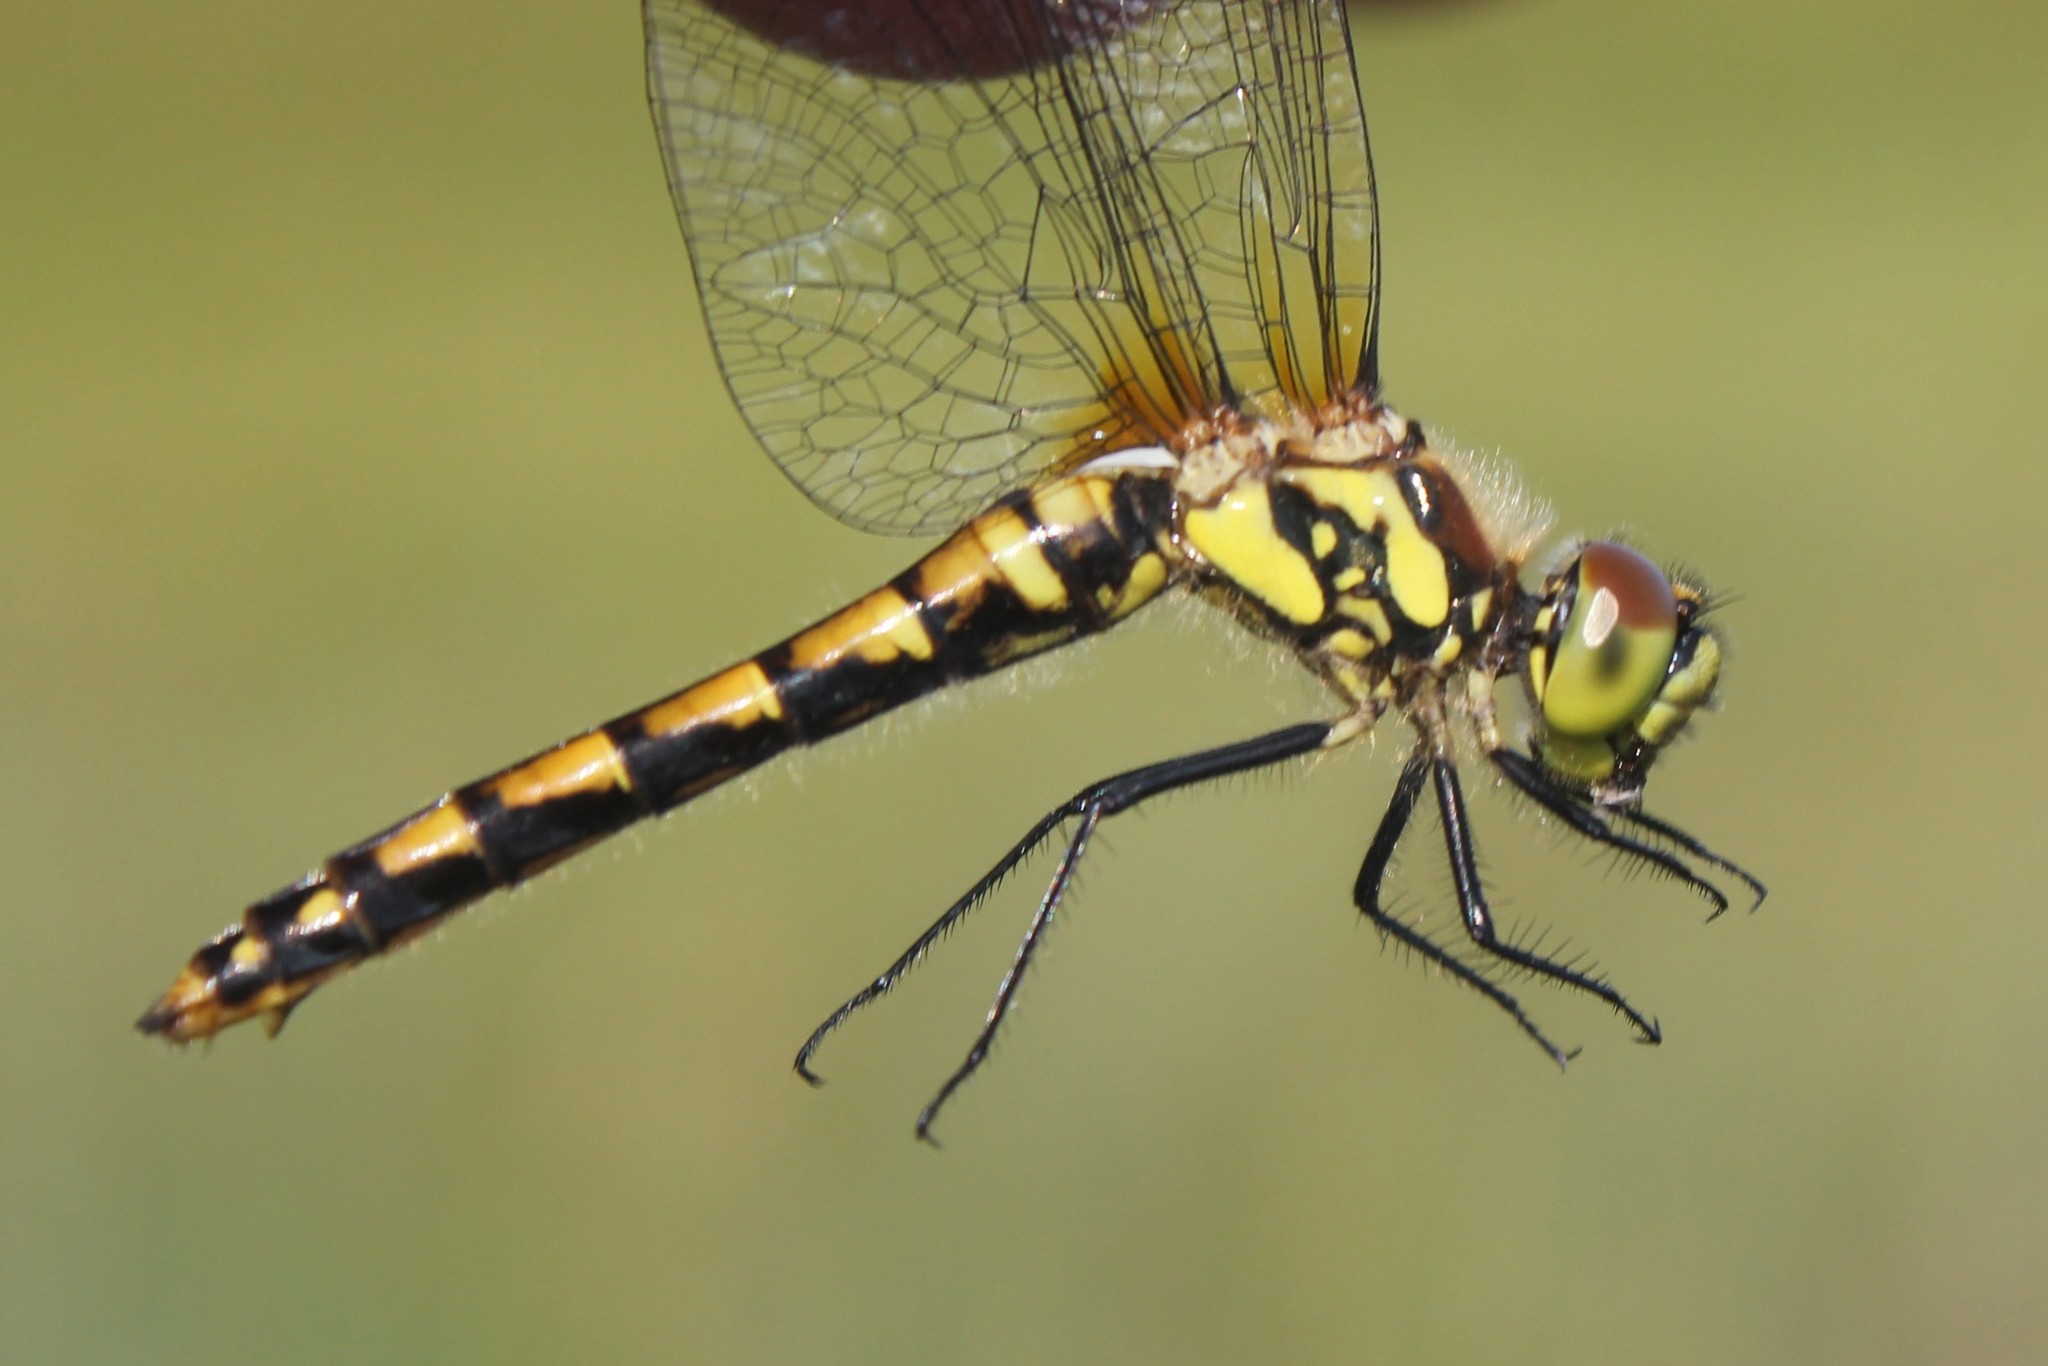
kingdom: Animalia
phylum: Arthropoda
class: Insecta
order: Odonata
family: Libellulidae
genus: Sympetrum
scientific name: Sympetrum danae
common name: Black darter
